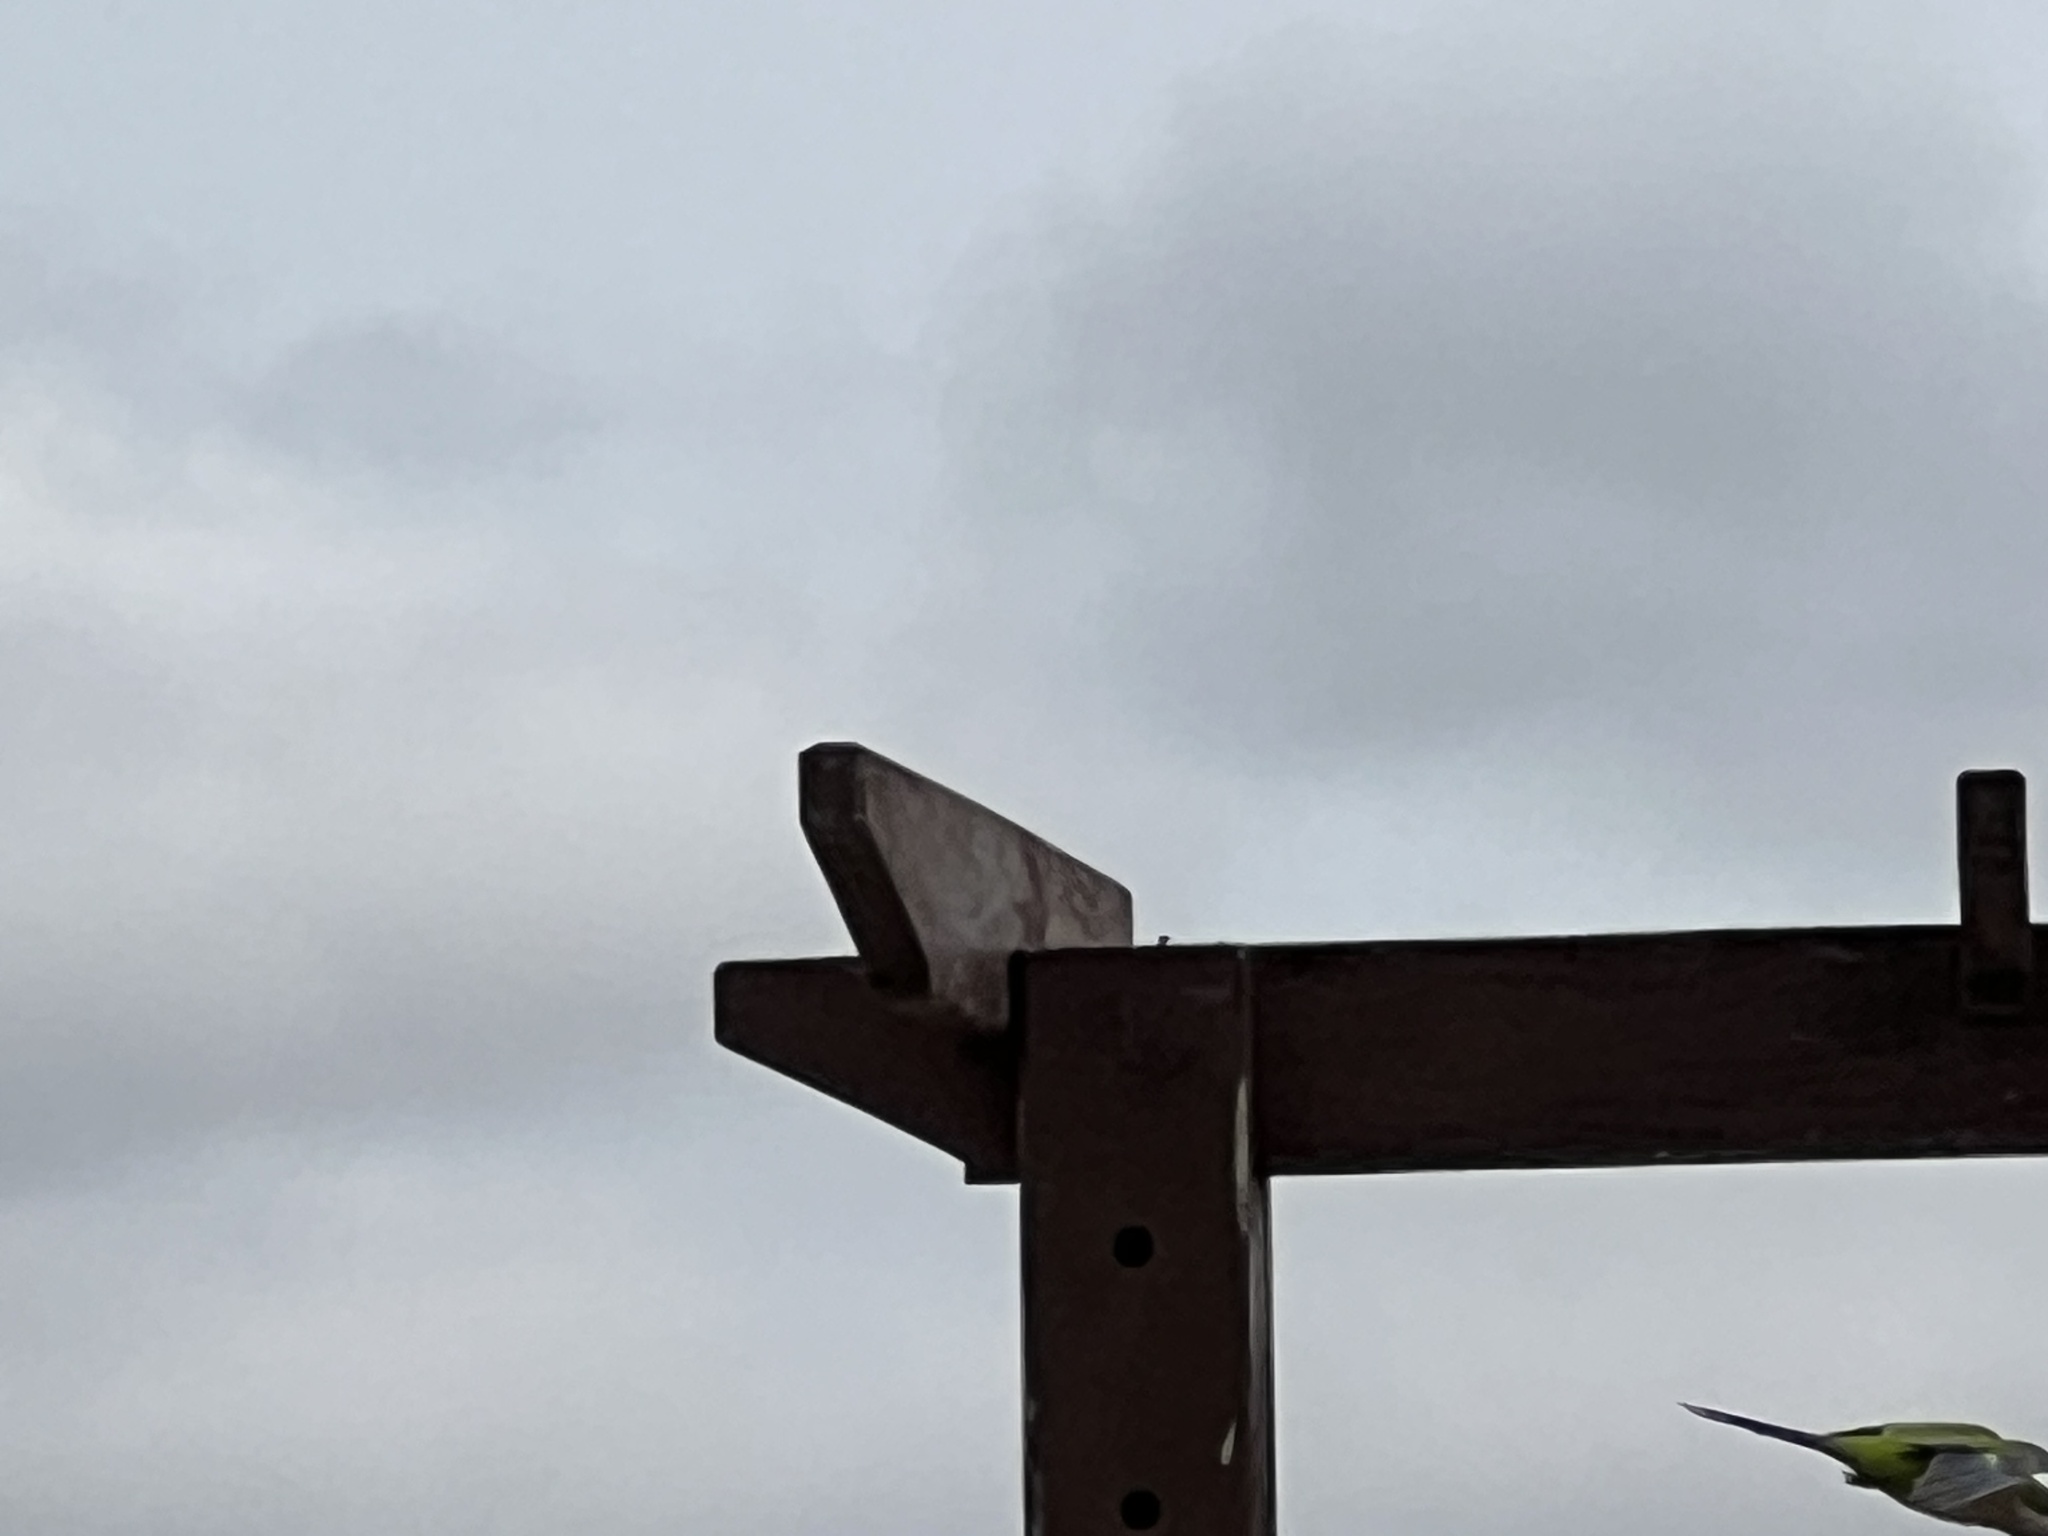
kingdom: Animalia
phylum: Chordata
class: Aves
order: Psittaciformes
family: Psittacidae
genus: Myiopsitta
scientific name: Myiopsitta monachus
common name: Monk parakeet
